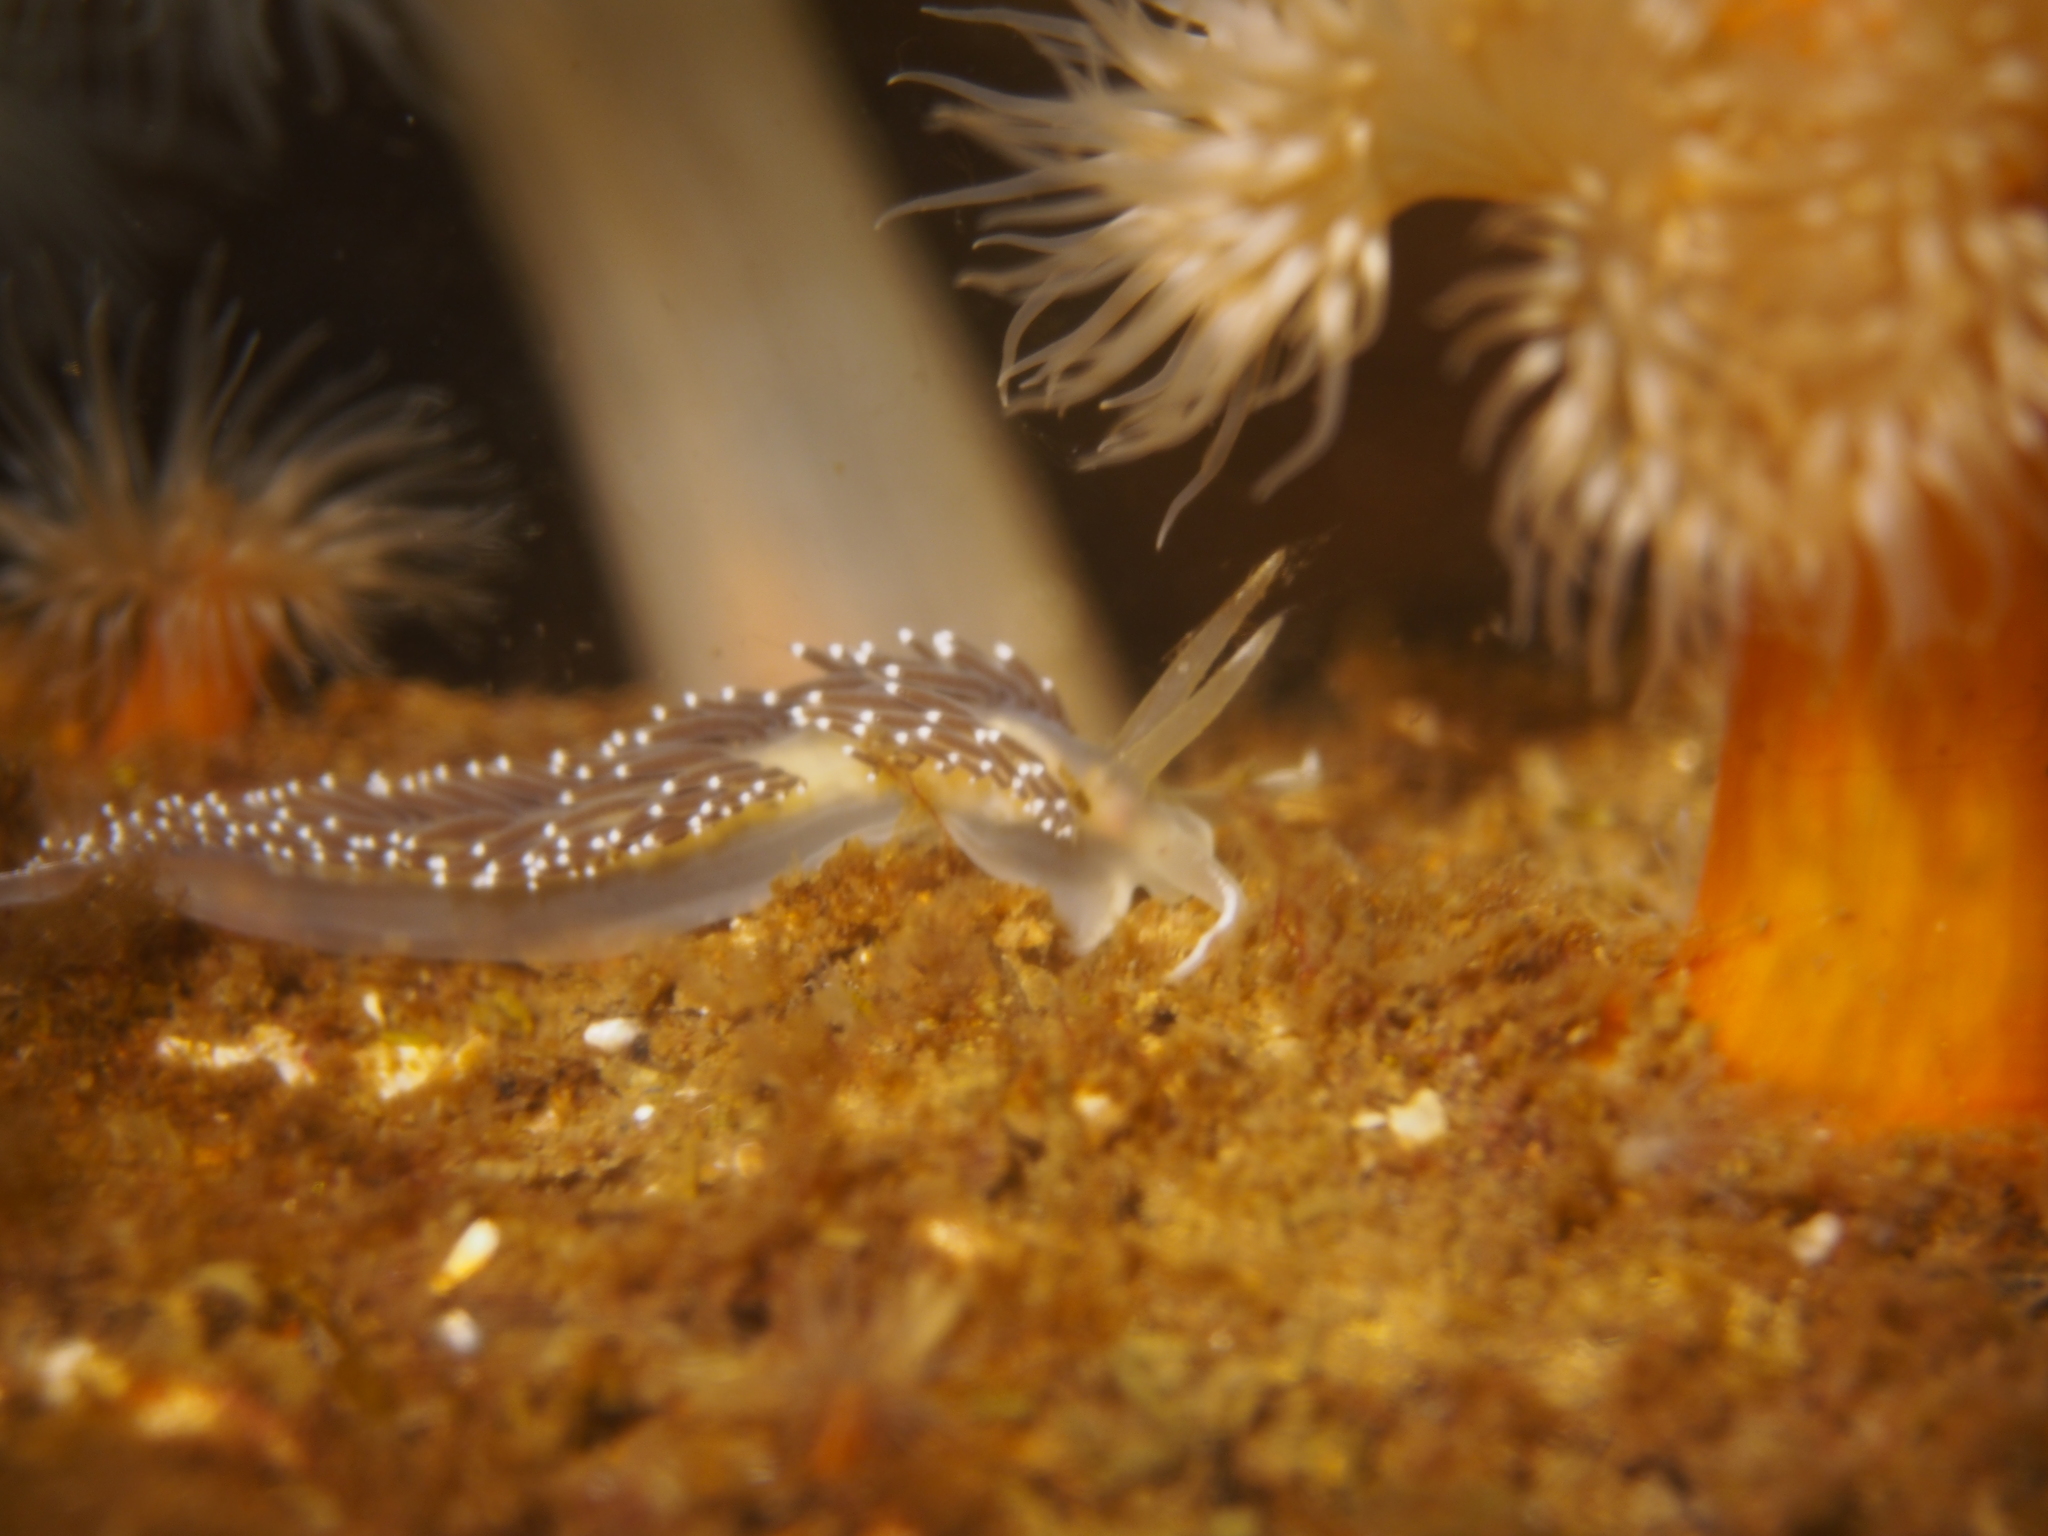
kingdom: Animalia
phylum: Mollusca
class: Gastropoda
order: Nudibranchia
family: Coryphellidae
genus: Coryphella
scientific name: Coryphella nobilis
